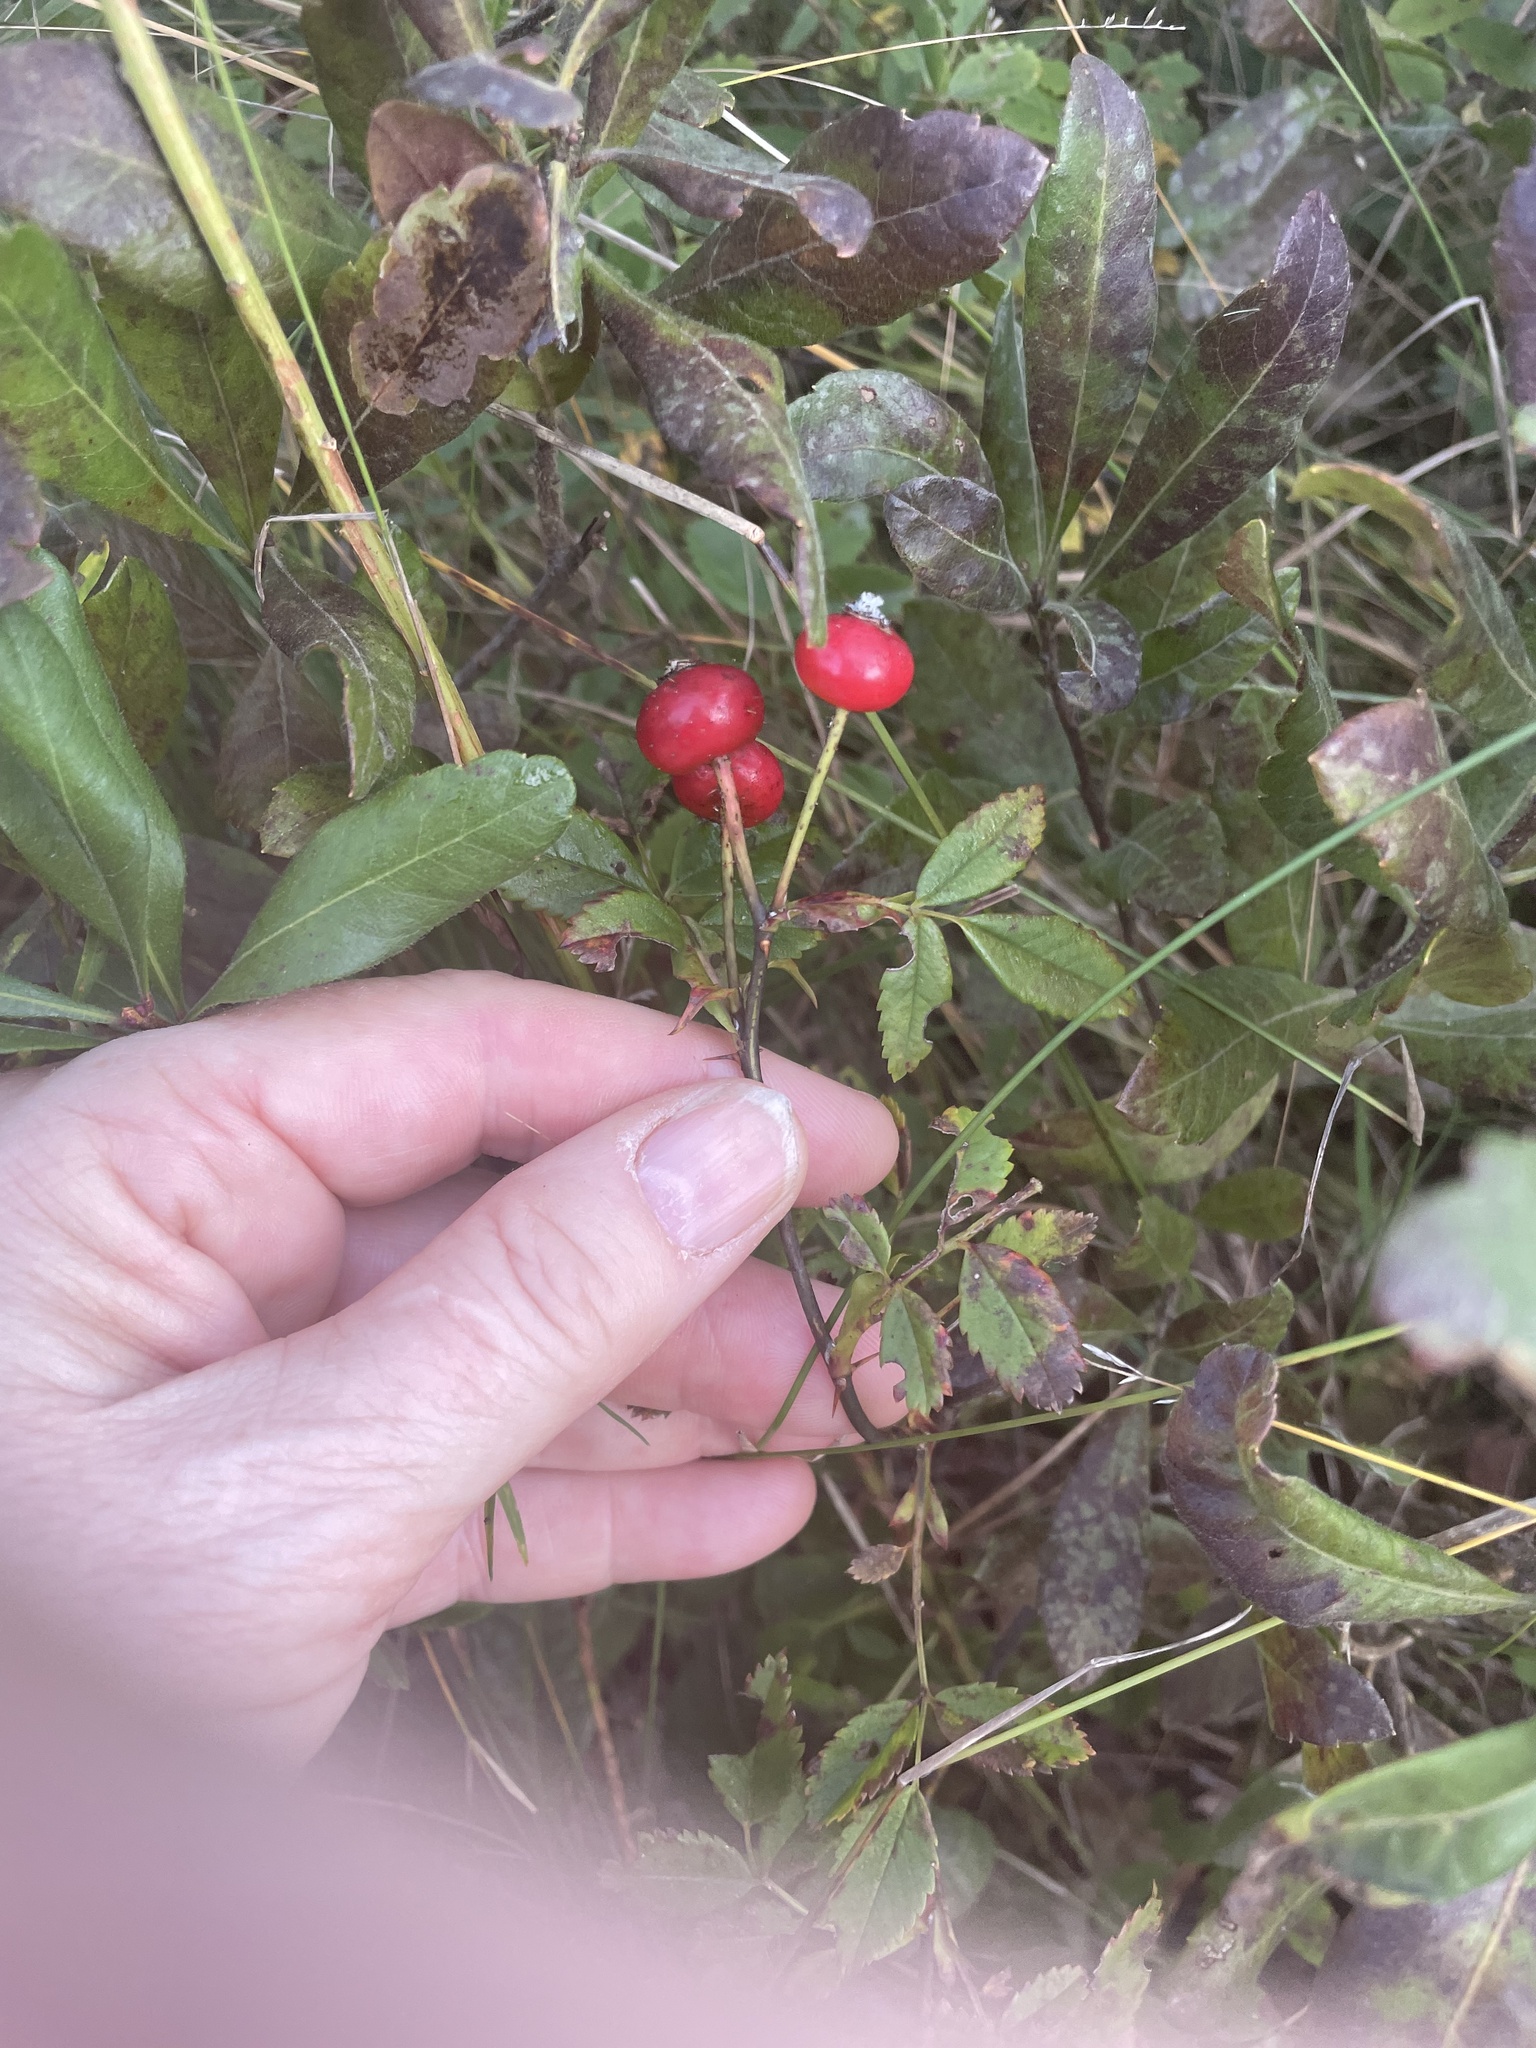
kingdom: Plantae
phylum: Tracheophyta
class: Magnoliopsida
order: Rosales
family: Rosaceae
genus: Rosa
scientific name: Rosa virginiana
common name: Virginian rose
